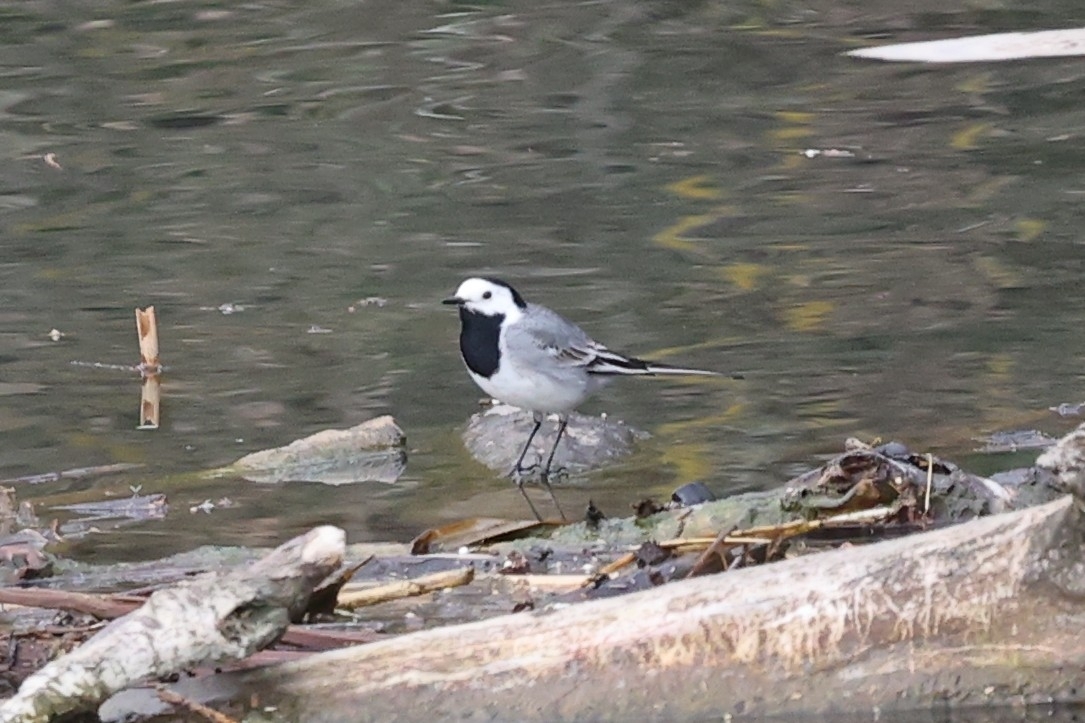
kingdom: Animalia
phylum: Chordata
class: Aves
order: Passeriformes
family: Motacillidae
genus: Motacilla
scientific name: Motacilla alba
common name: White wagtail
